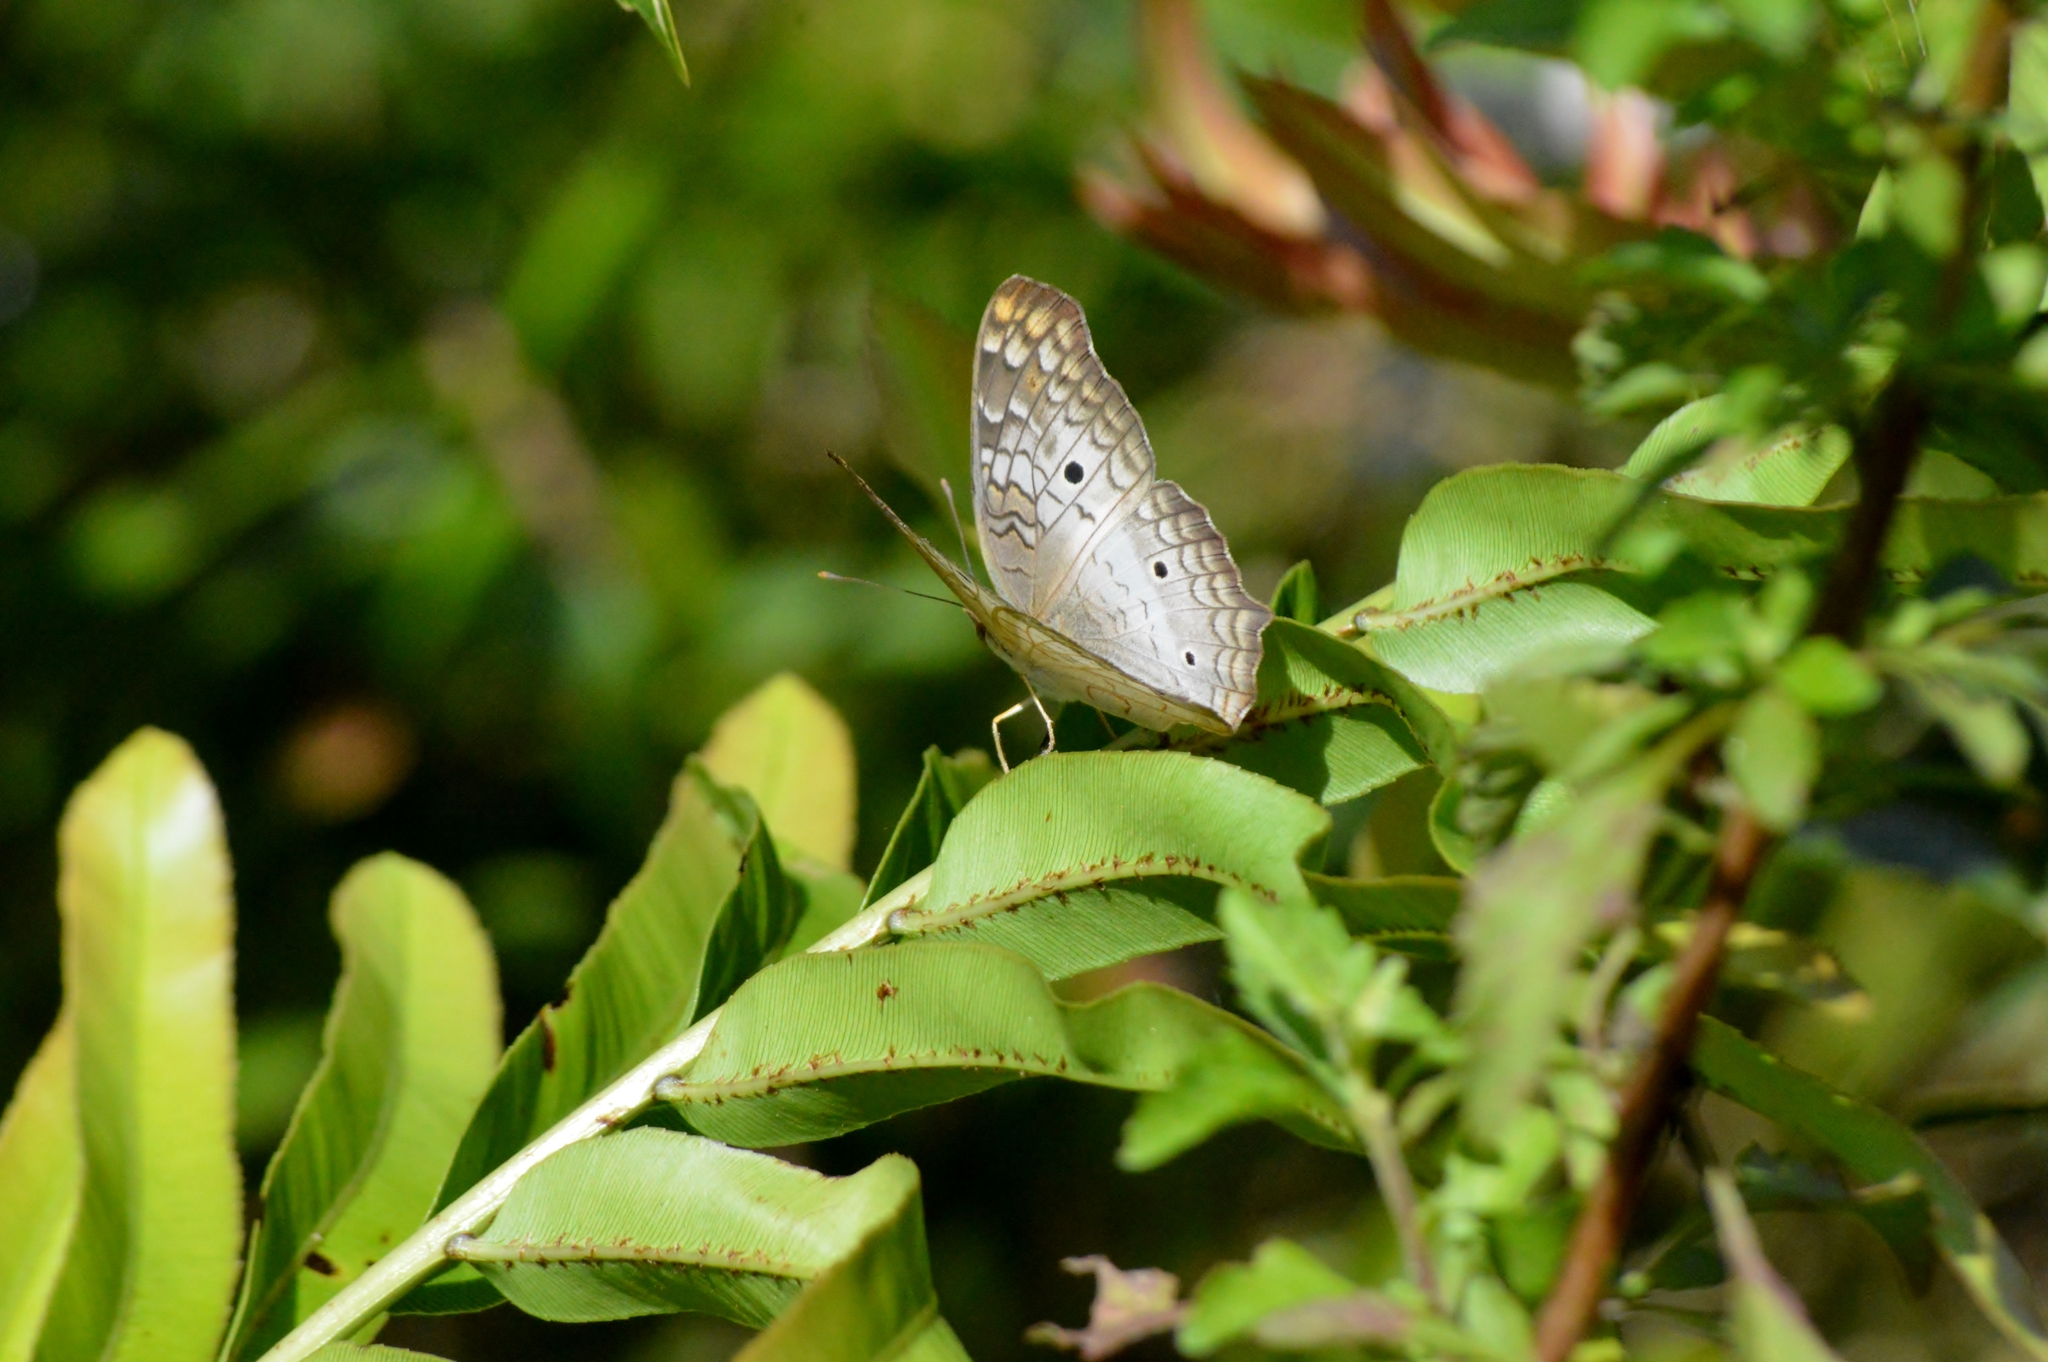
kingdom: Animalia
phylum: Arthropoda
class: Insecta
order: Lepidoptera
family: Nymphalidae
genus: Anartia
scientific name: Anartia jatrophae
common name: White peacock
